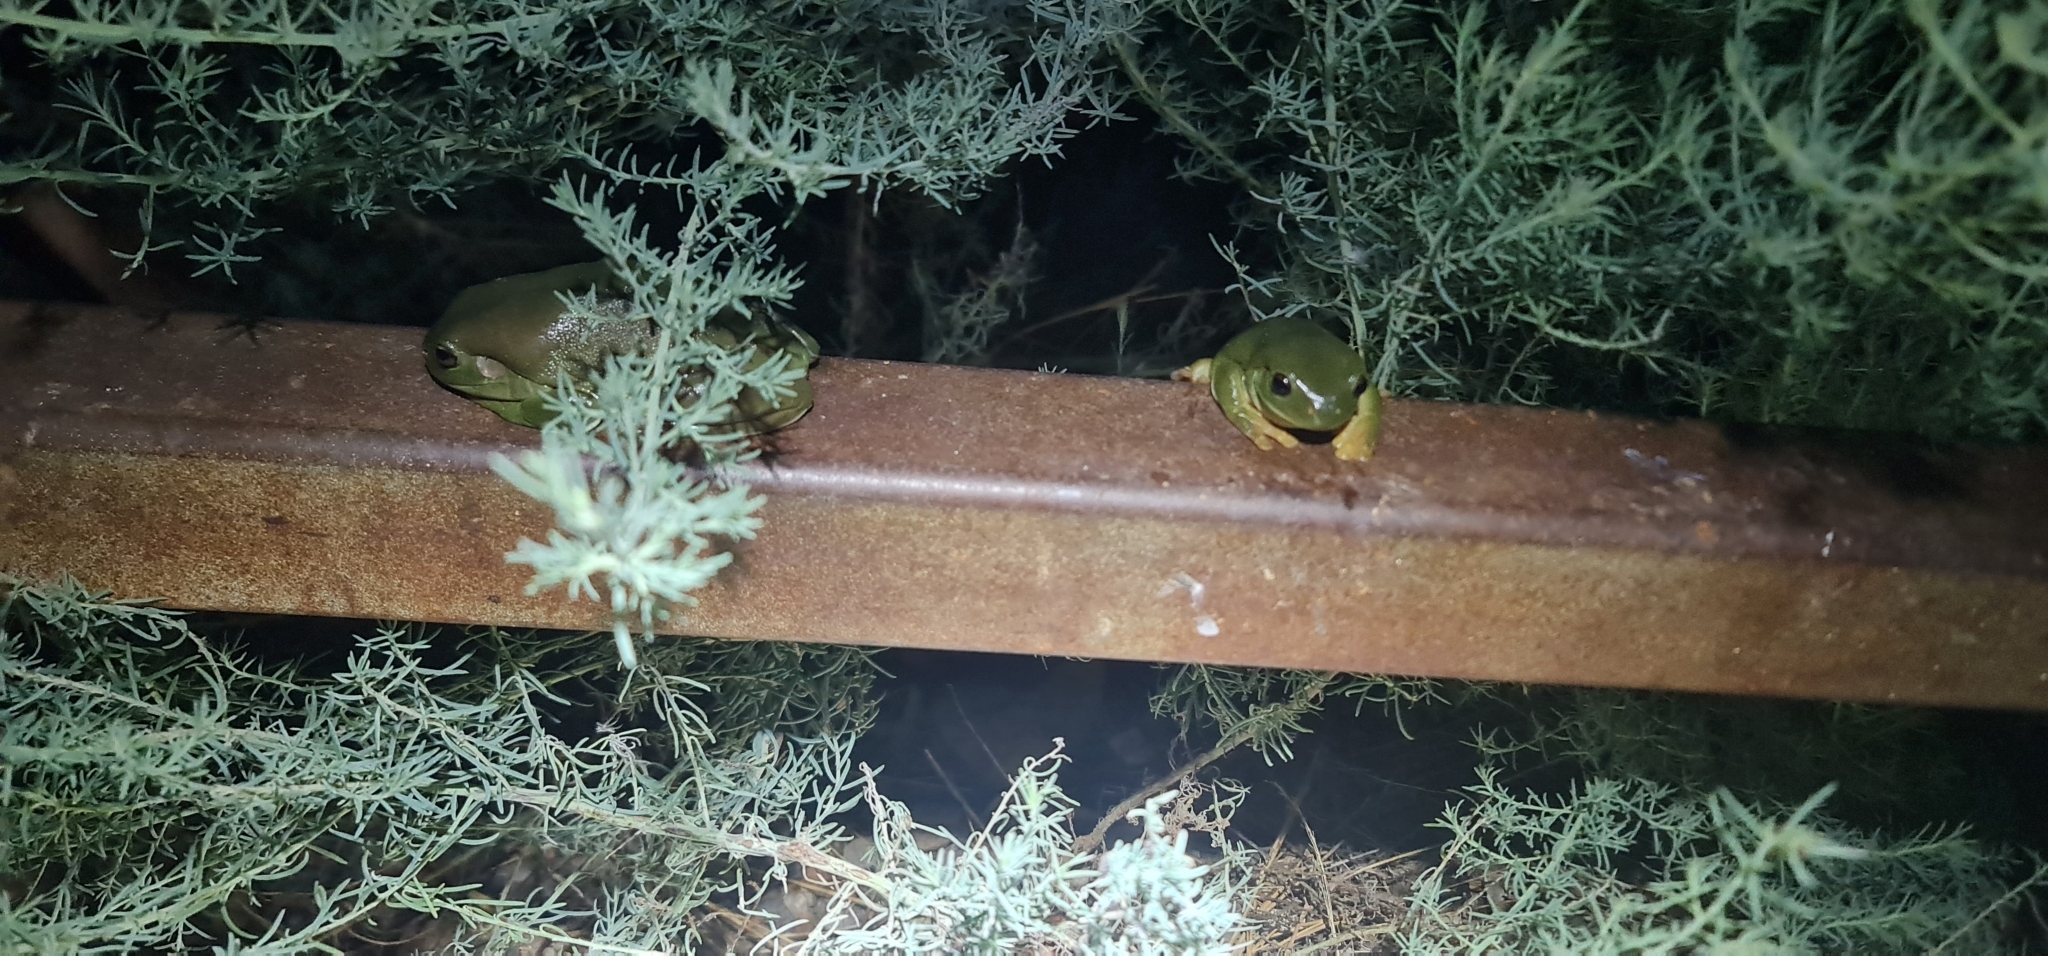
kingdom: Animalia
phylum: Chordata
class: Amphibia
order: Anura
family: Pelodryadidae
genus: Ranoidea
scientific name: Ranoidea caerulea
